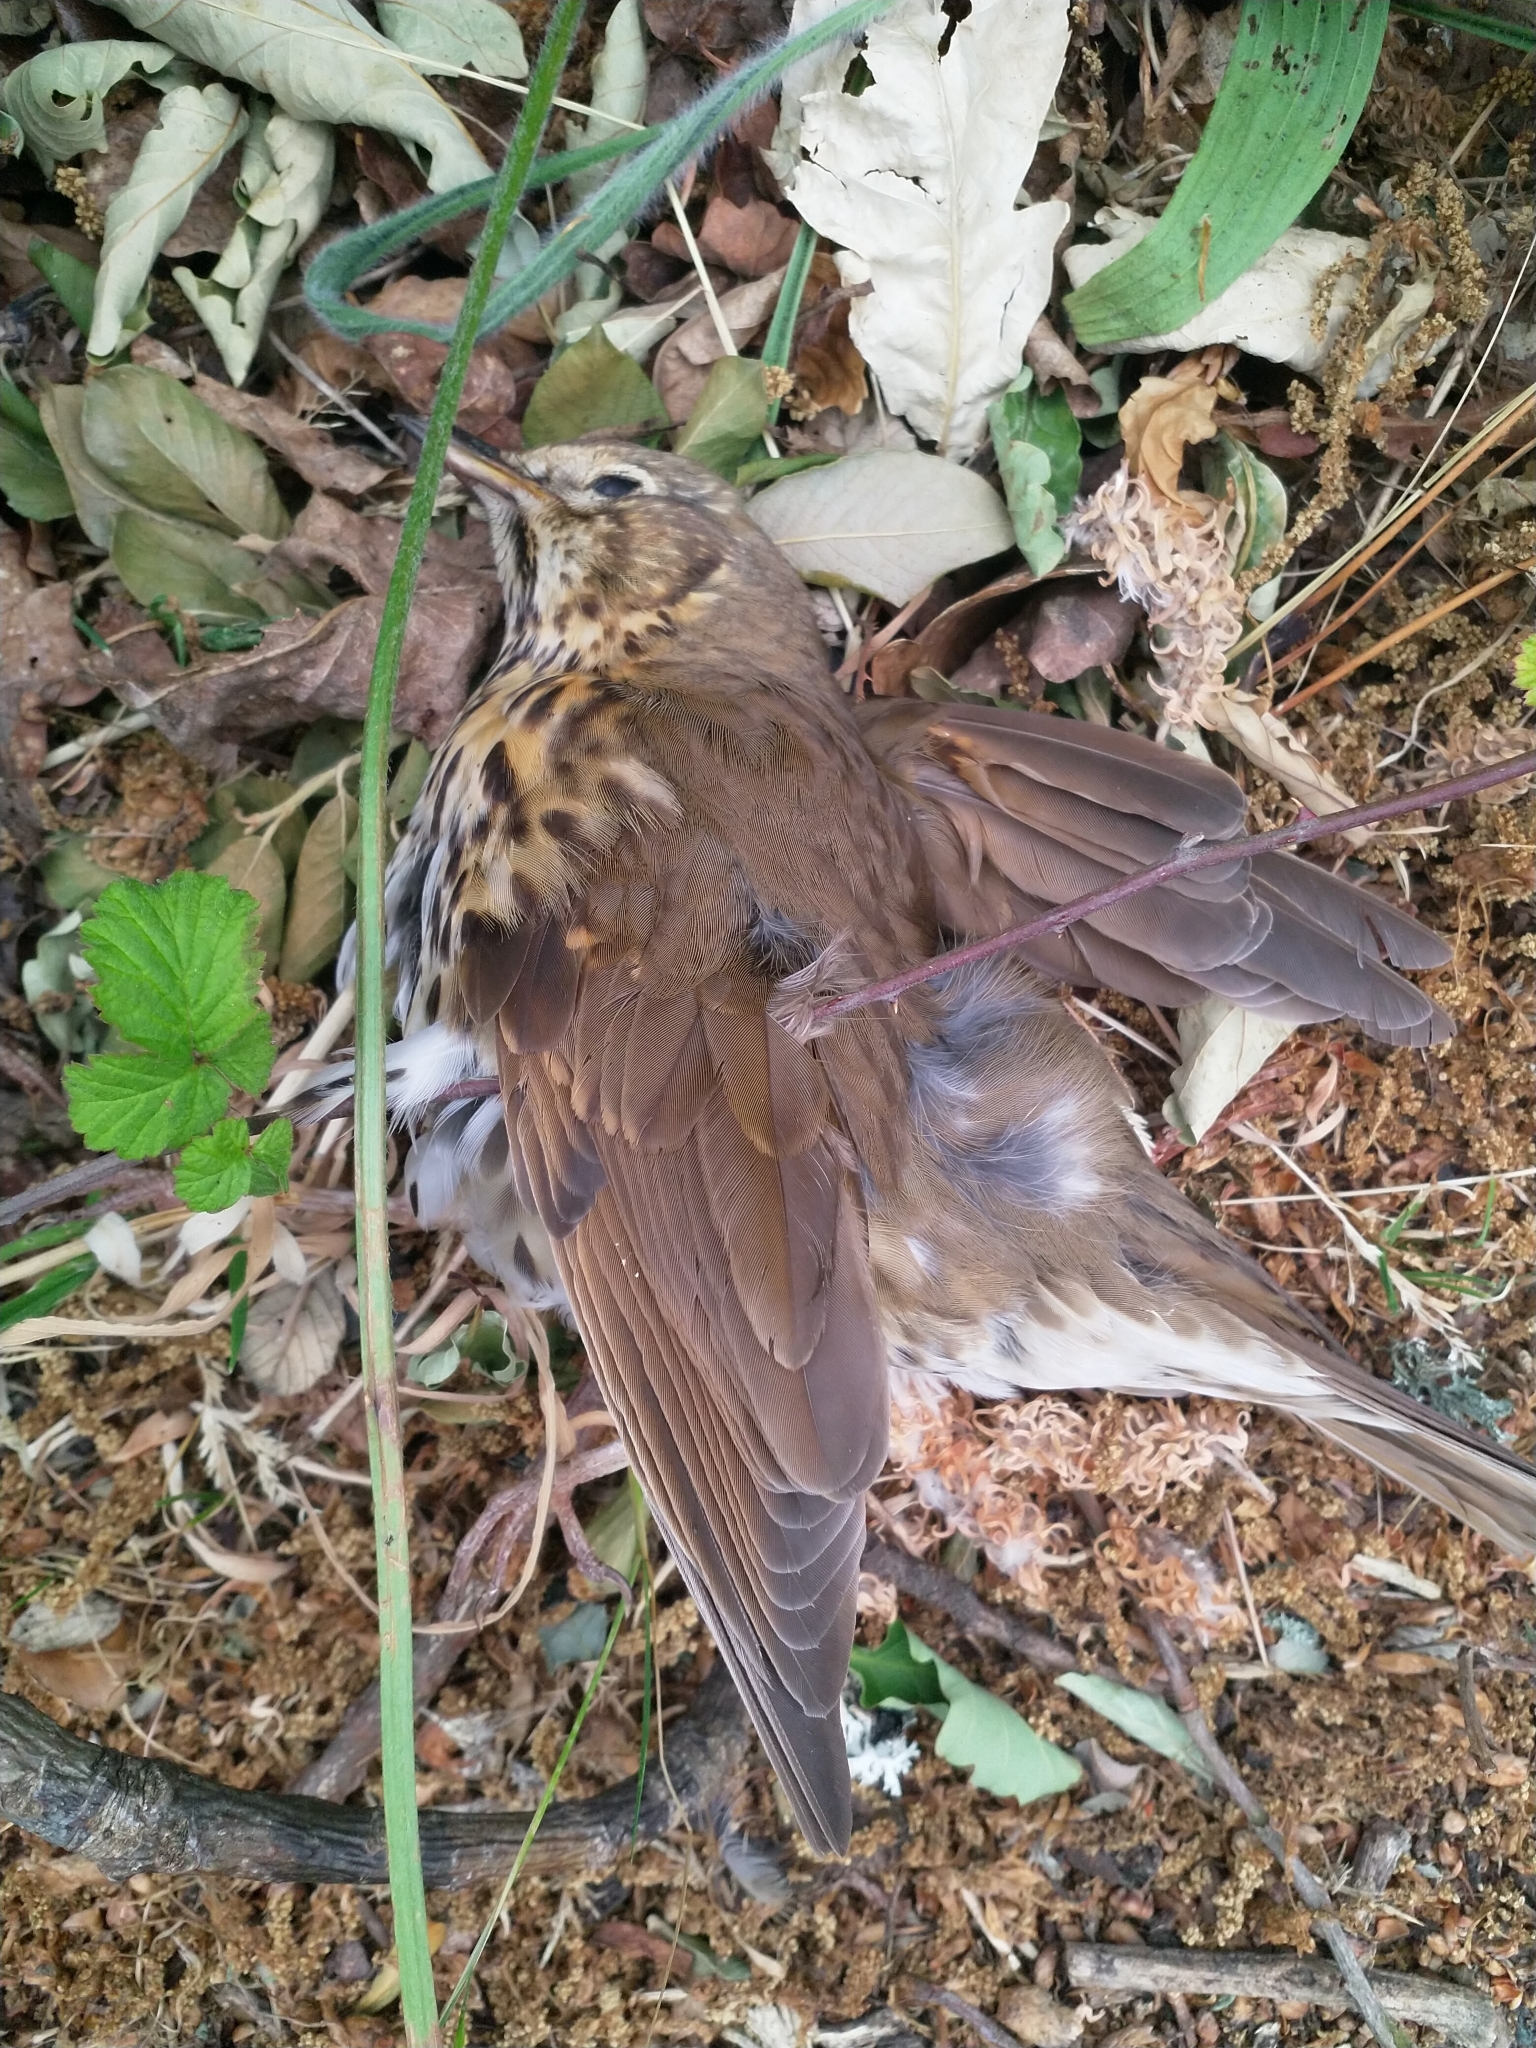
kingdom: Animalia
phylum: Chordata
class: Aves
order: Passeriformes
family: Turdidae
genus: Turdus
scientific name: Turdus philomelos
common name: Song thrush
